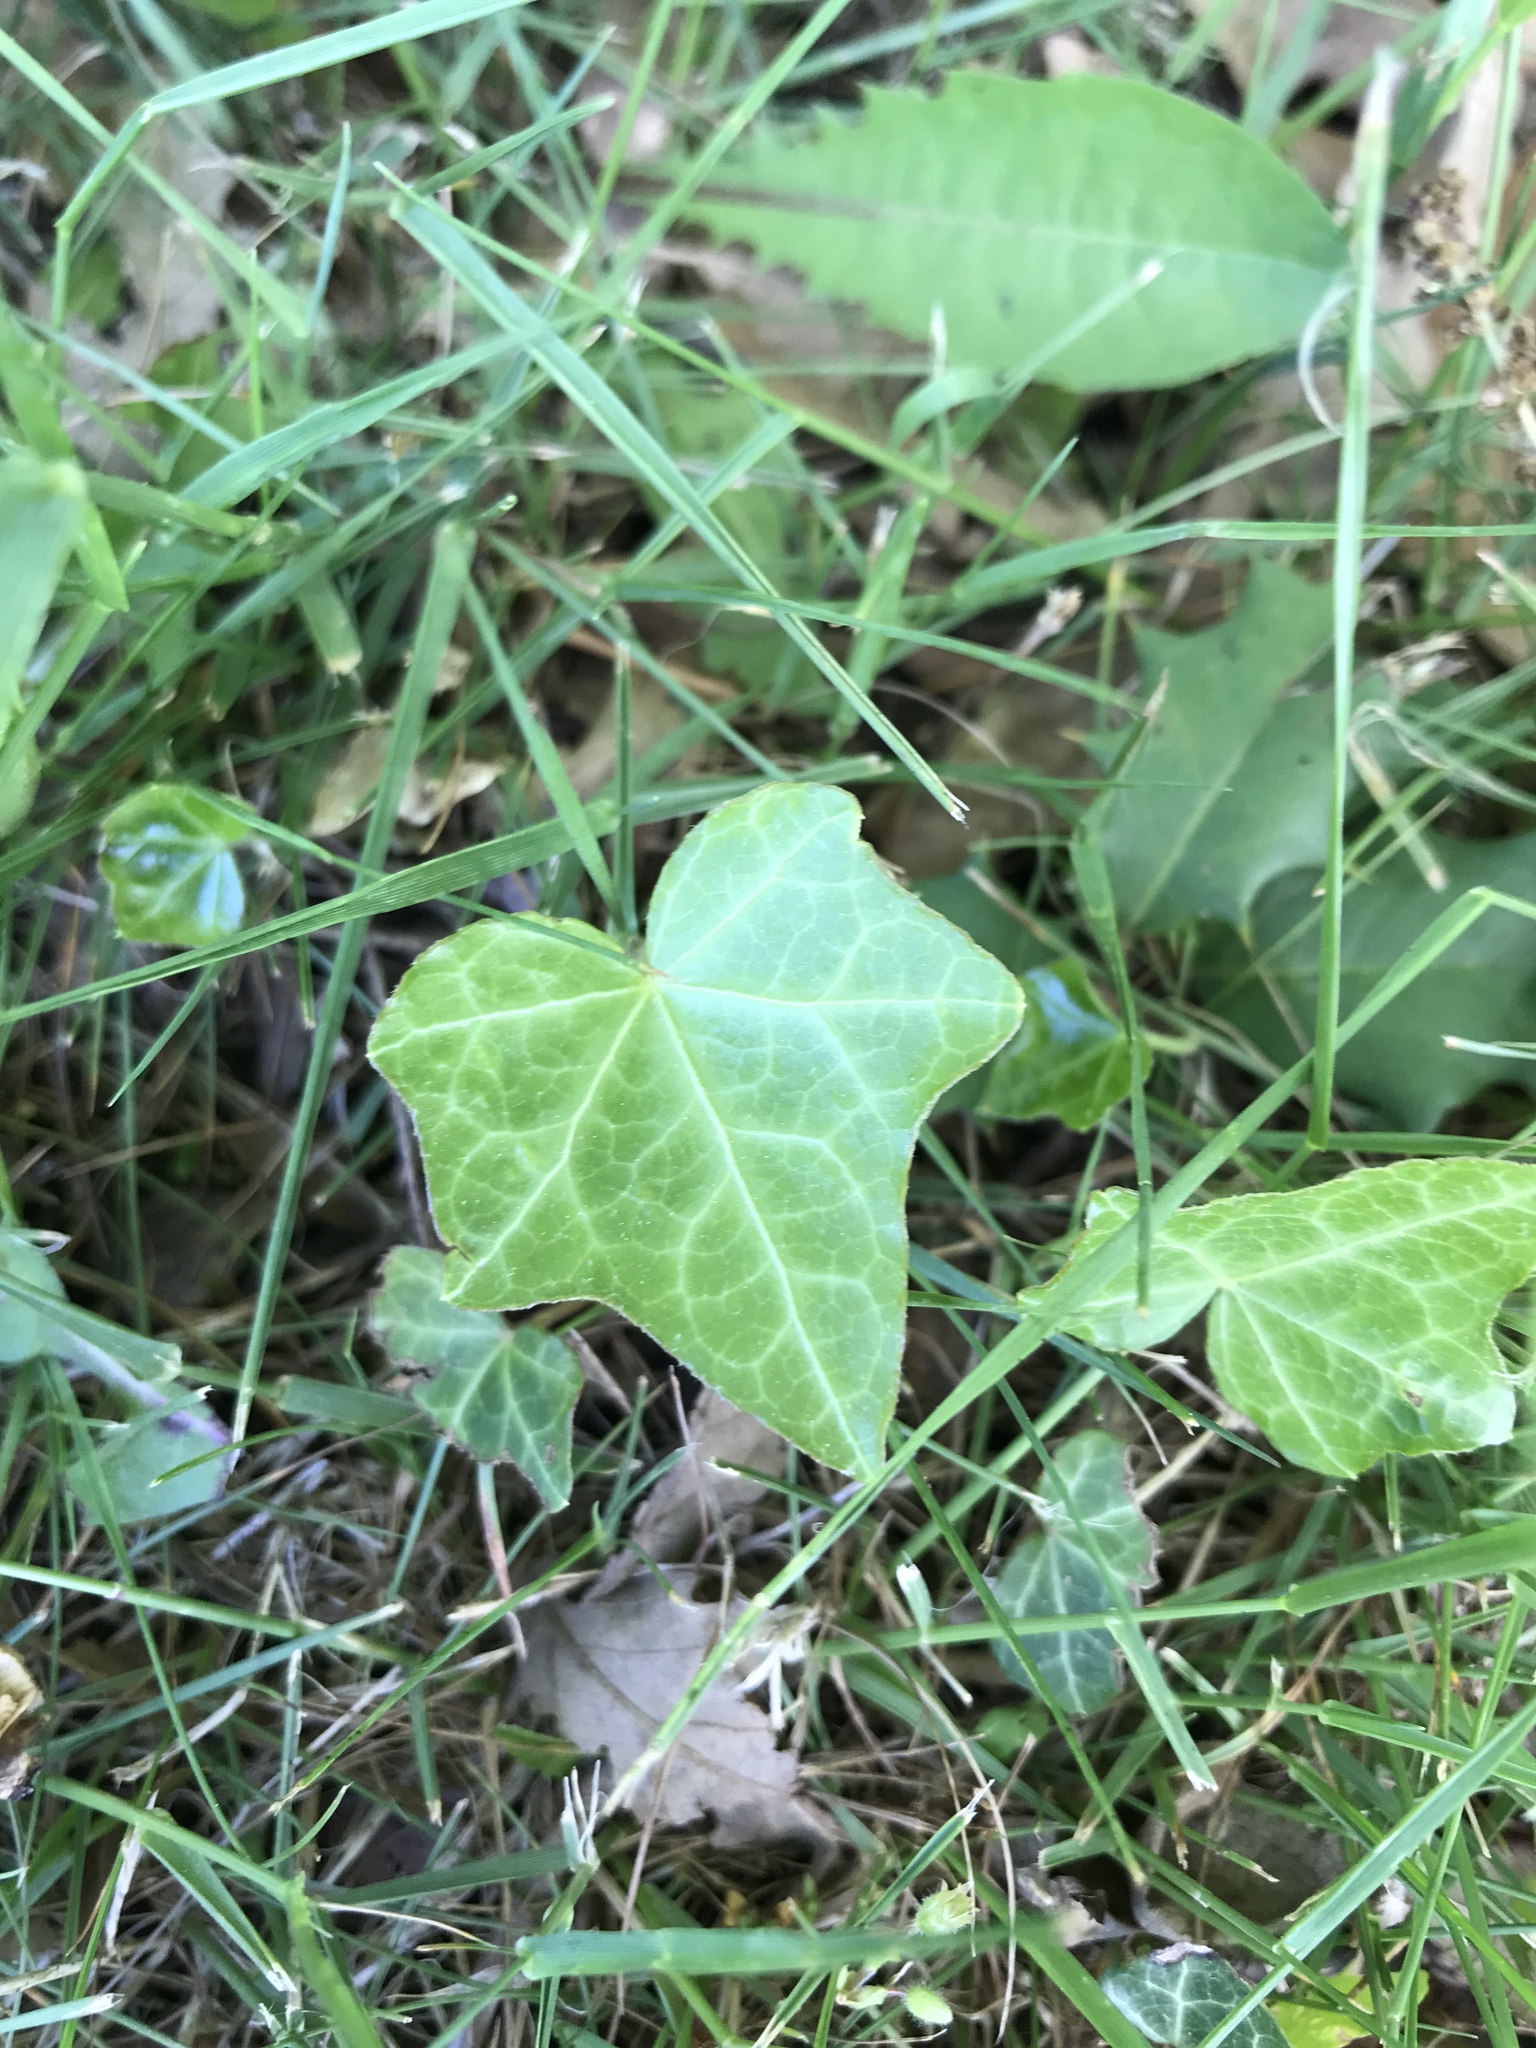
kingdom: Plantae
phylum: Tracheophyta
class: Magnoliopsida
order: Apiales
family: Araliaceae
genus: Hedera
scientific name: Hedera helix
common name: Ivy
